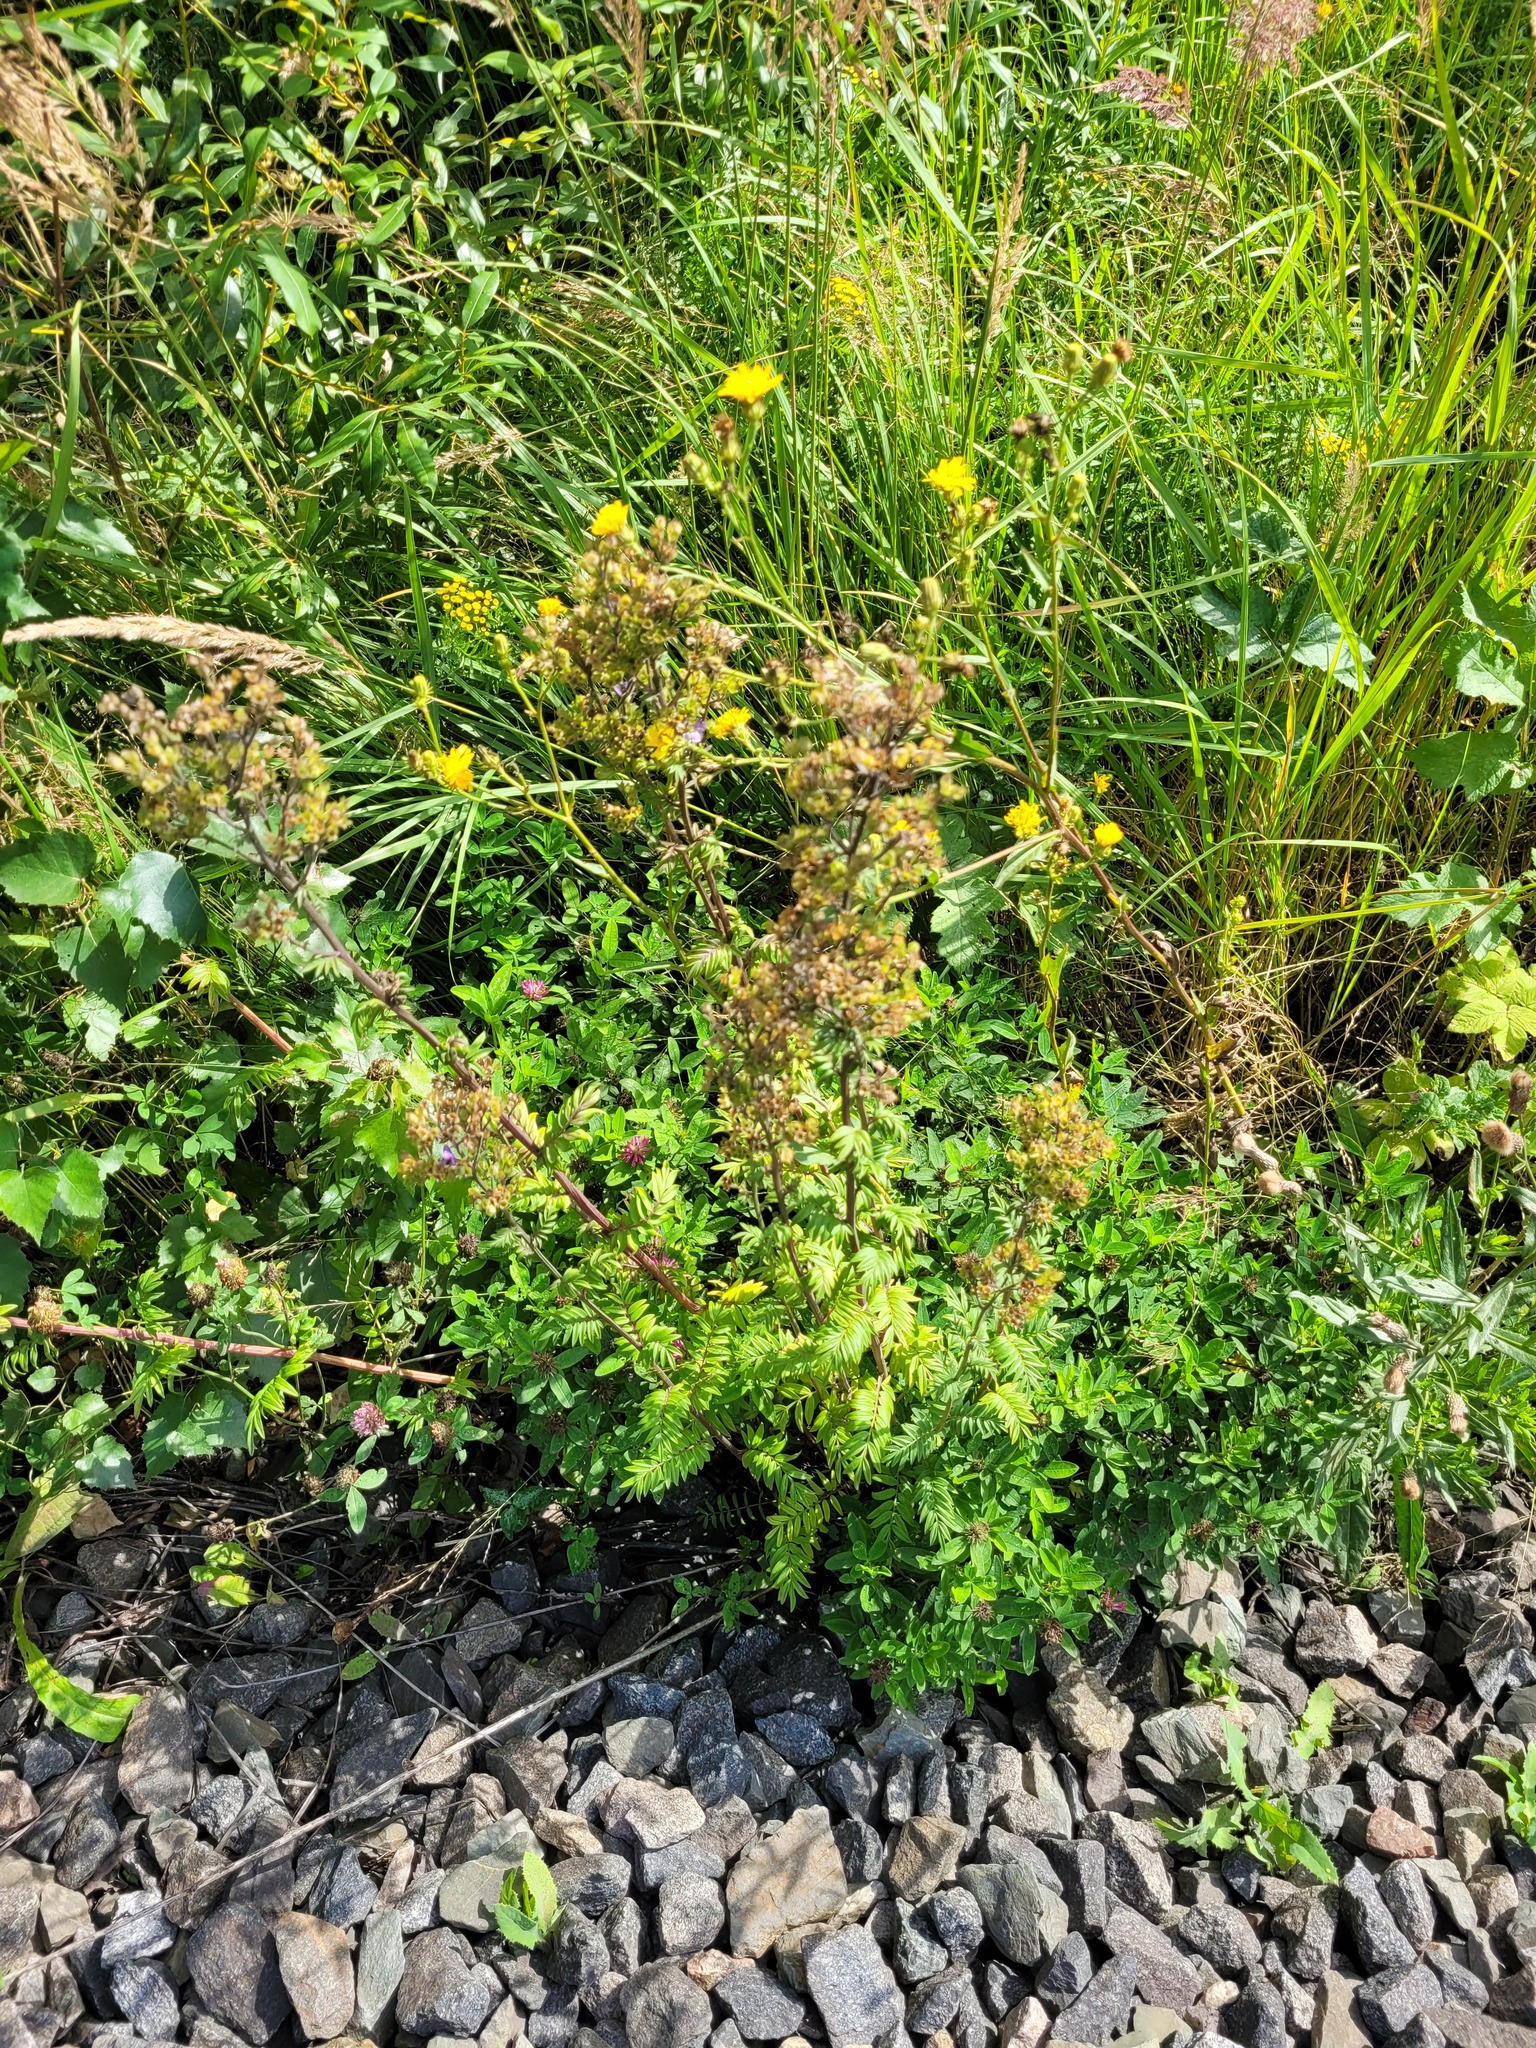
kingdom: Plantae
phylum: Tracheophyta
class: Magnoliopsida
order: Ericales
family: Polemoniaceae
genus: Polemonium
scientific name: Polemonium caeruleum
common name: Jacob's-ladder
